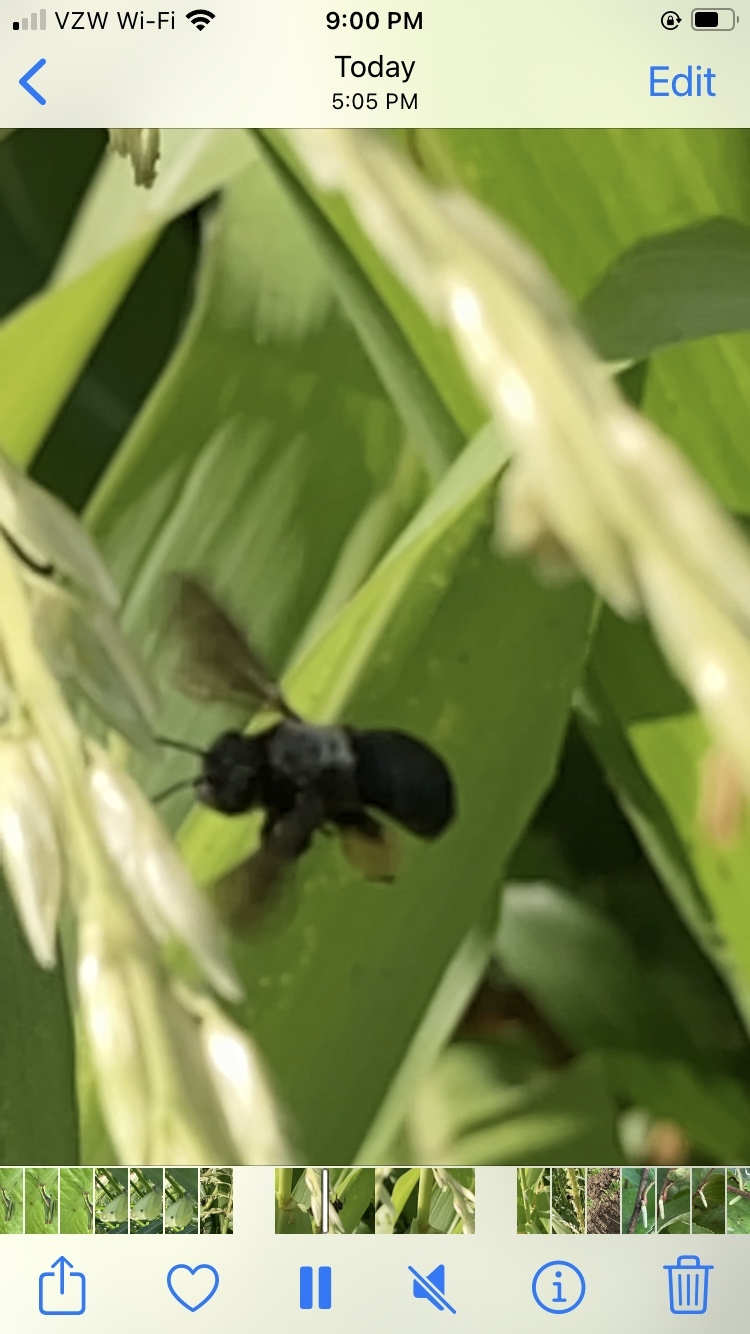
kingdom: Animalia
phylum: Arthropoda
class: Insecta
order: Hymenoptera
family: Apidae
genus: Melissodes
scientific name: Melissodes bimaculatus
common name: Two-spotted long-horned bee
